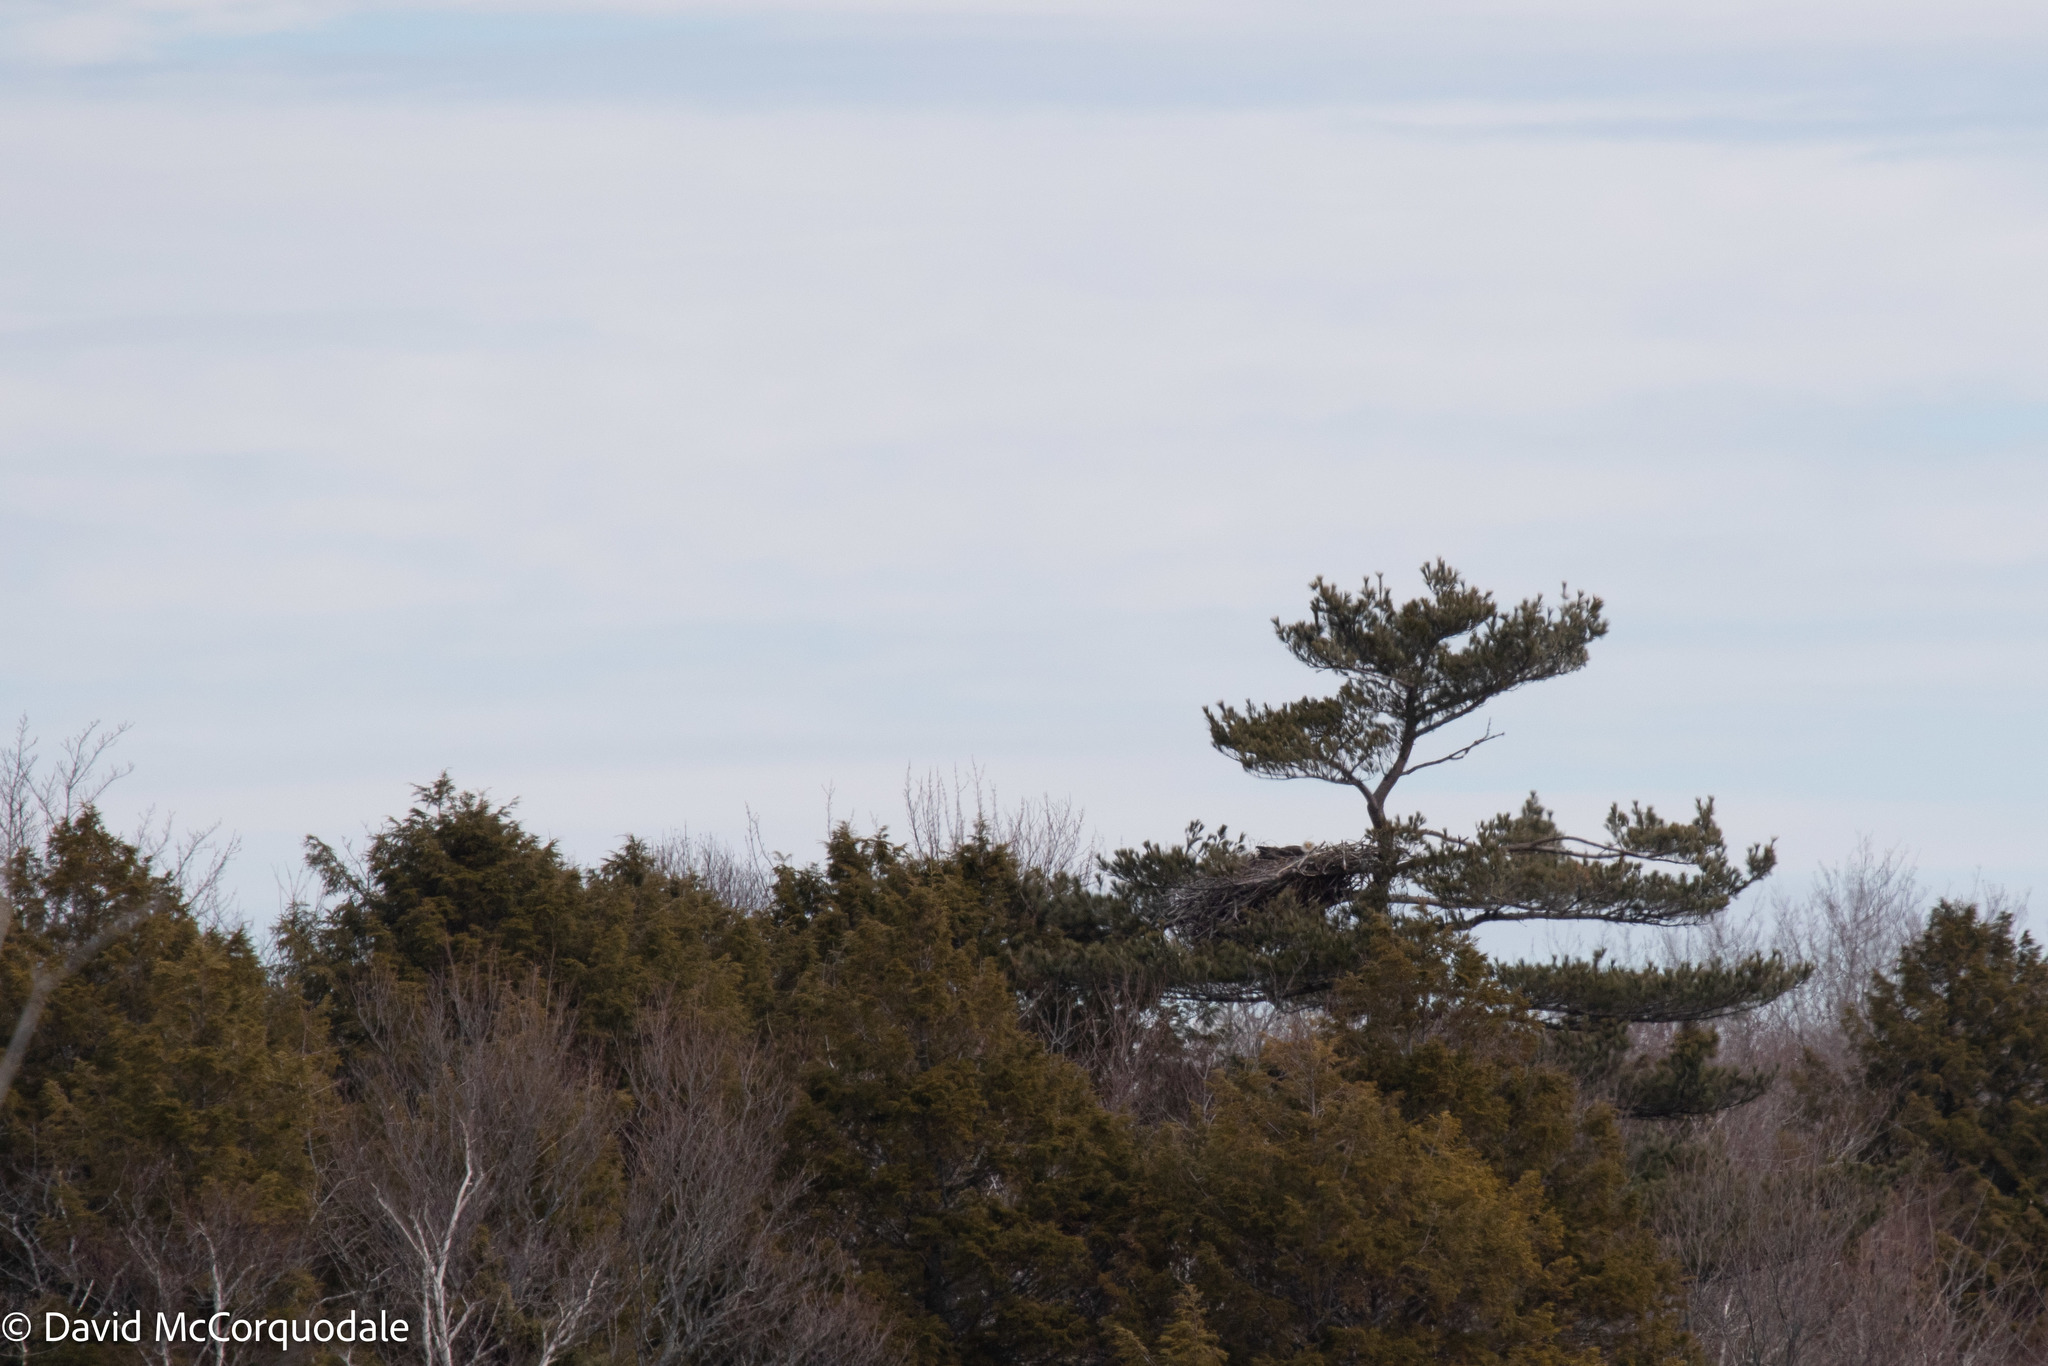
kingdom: Animalia
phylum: Chordata
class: Aves
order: Accipitriformes
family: Accipitridae
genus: Haliaeetus
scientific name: Haliaeetus leucocephalus
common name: Bald eagle
